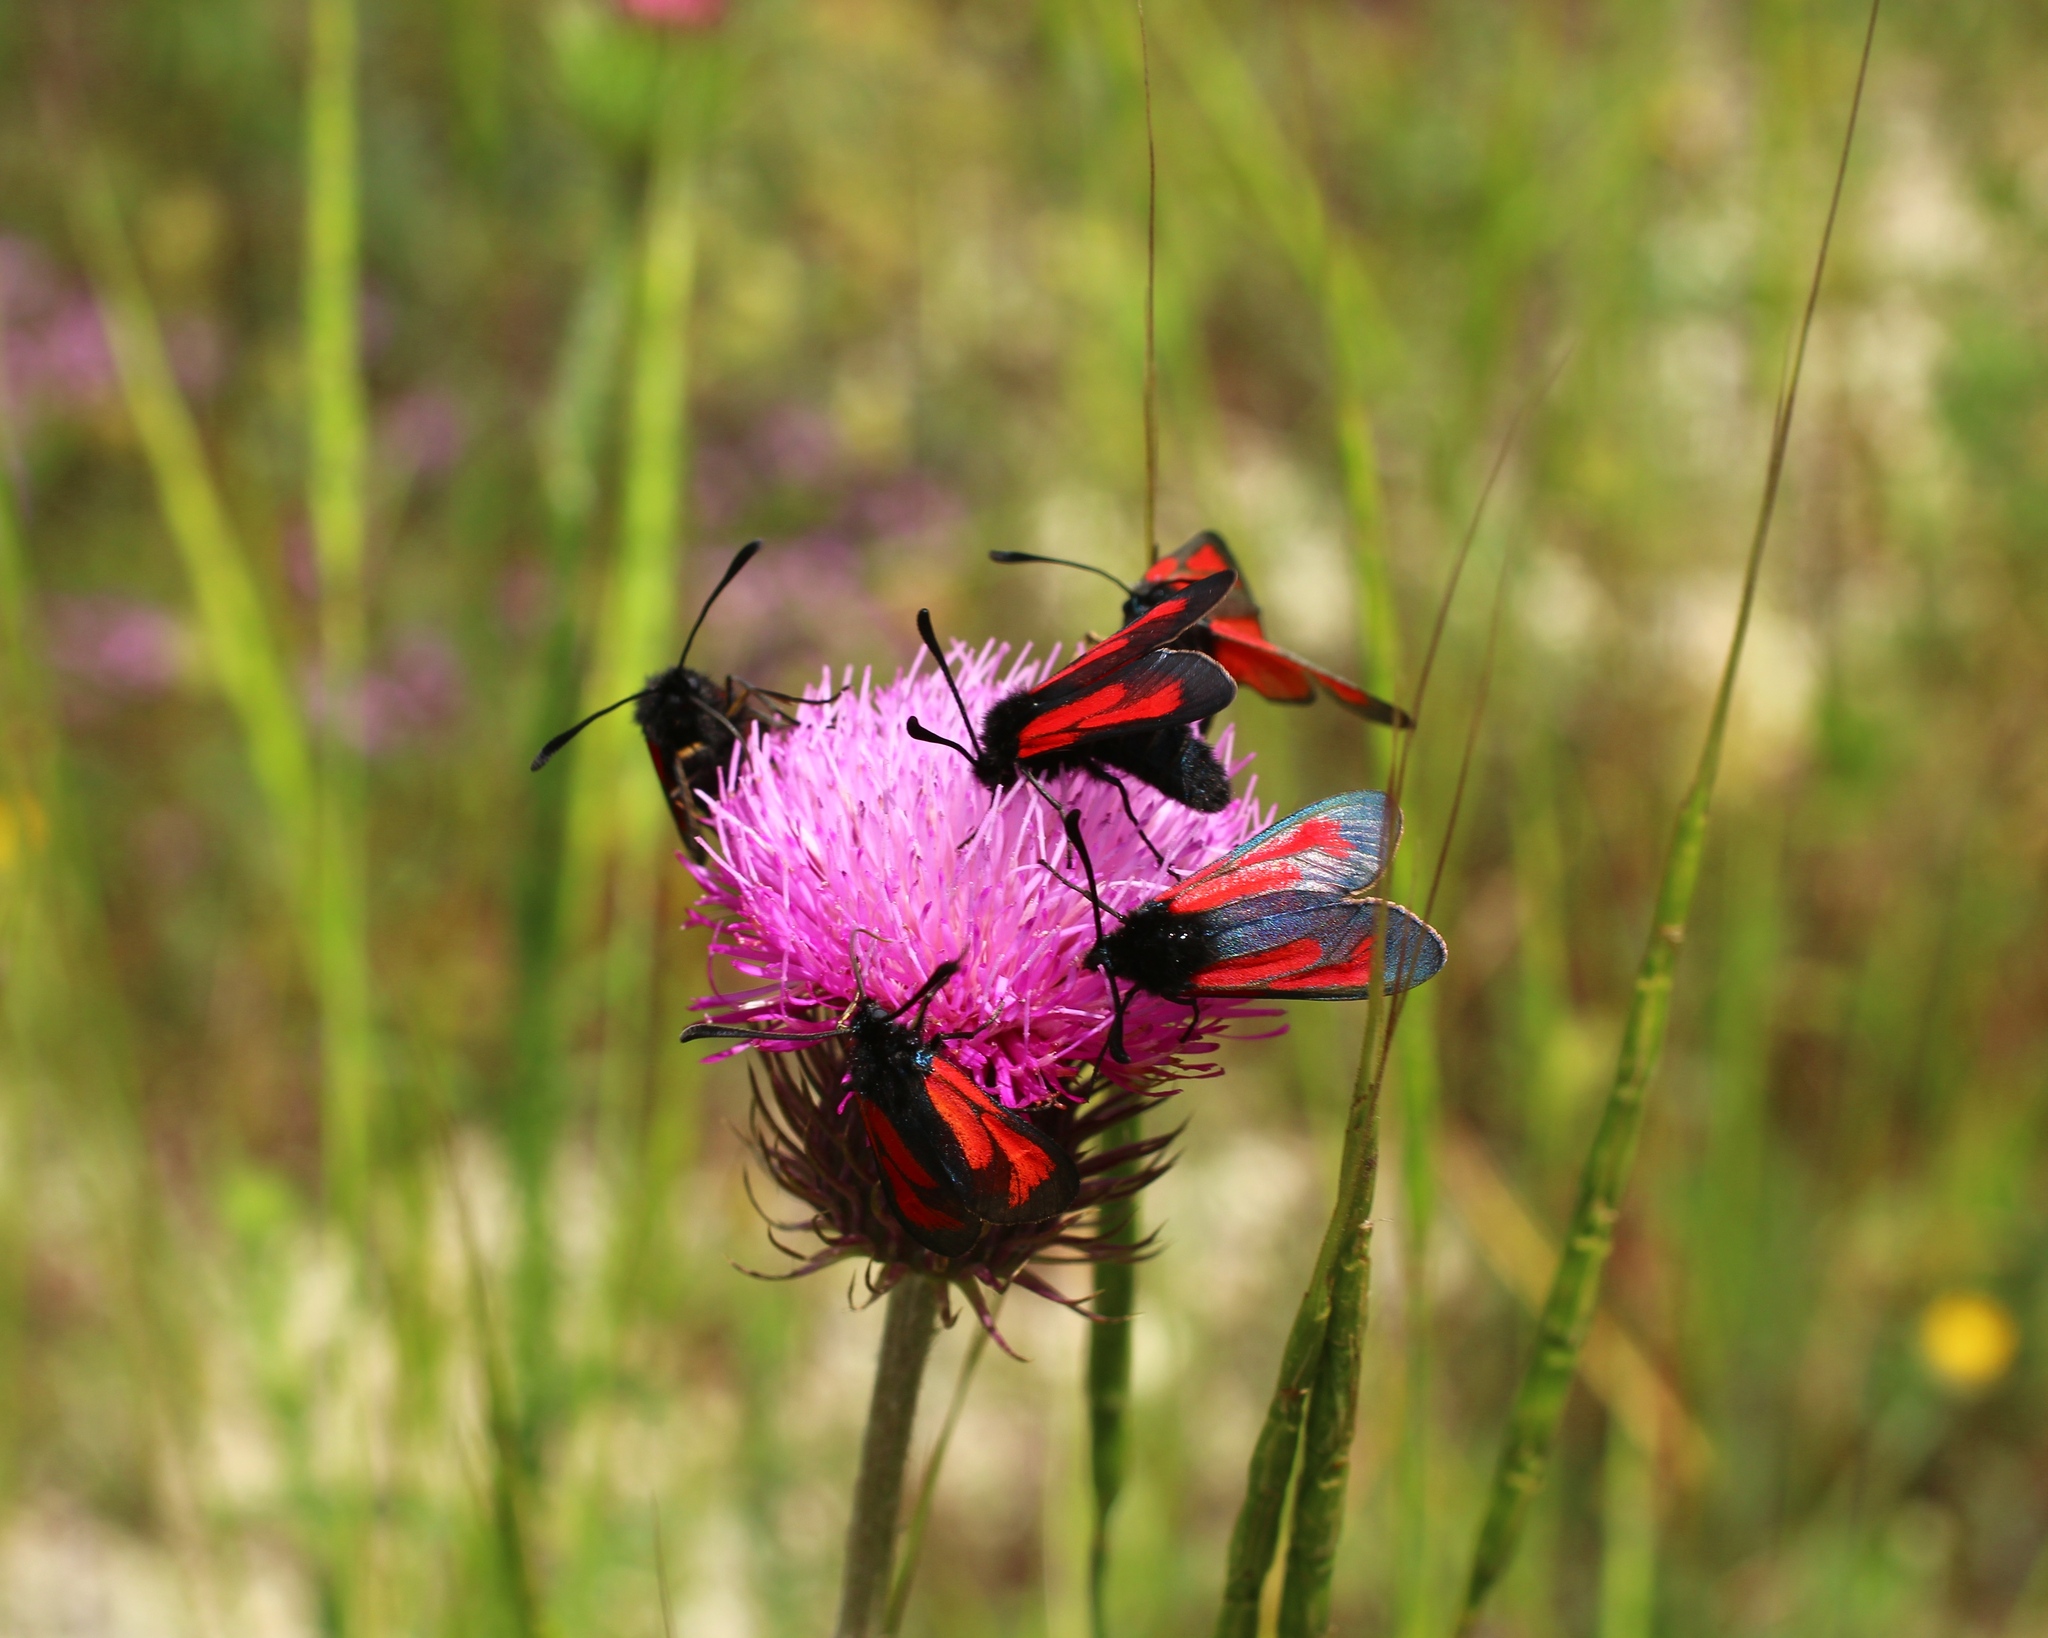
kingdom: Animalia
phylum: Arthropoda
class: Insecta
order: Lepidoptera
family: Zygaenidae
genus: Zygaena
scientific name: Zygaena purpuralis
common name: Transparent burnet
